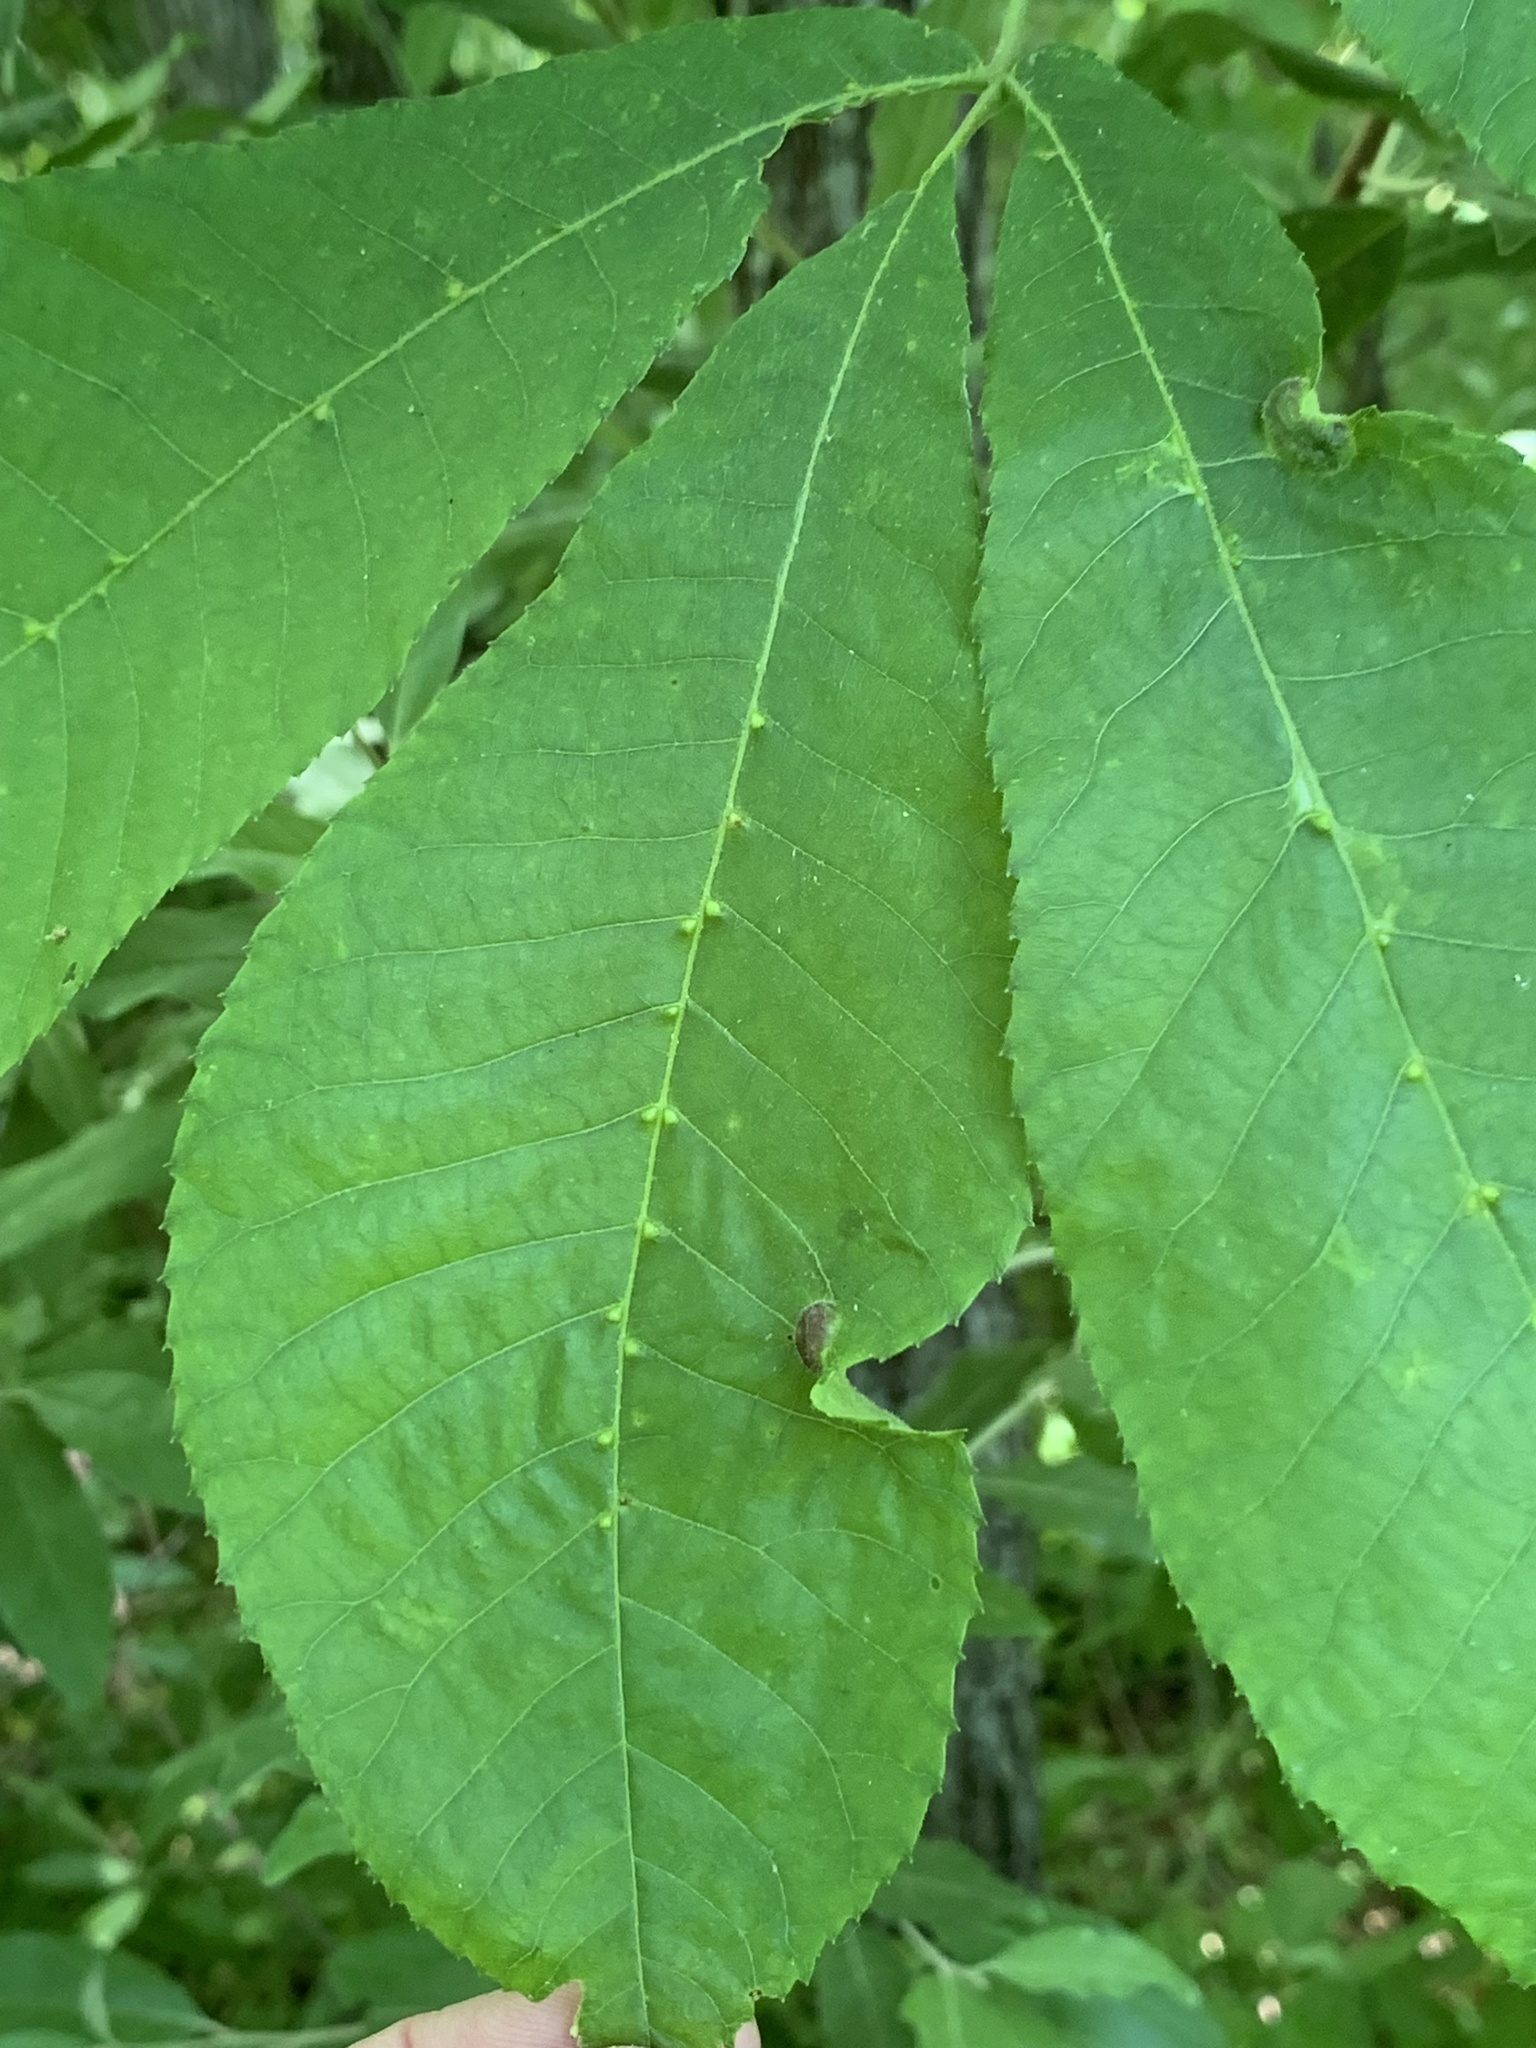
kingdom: Animalia
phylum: Arthropoda
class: Arachnida
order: Trombidiformes
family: Eriophyidae
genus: Aceria
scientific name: Aceria
